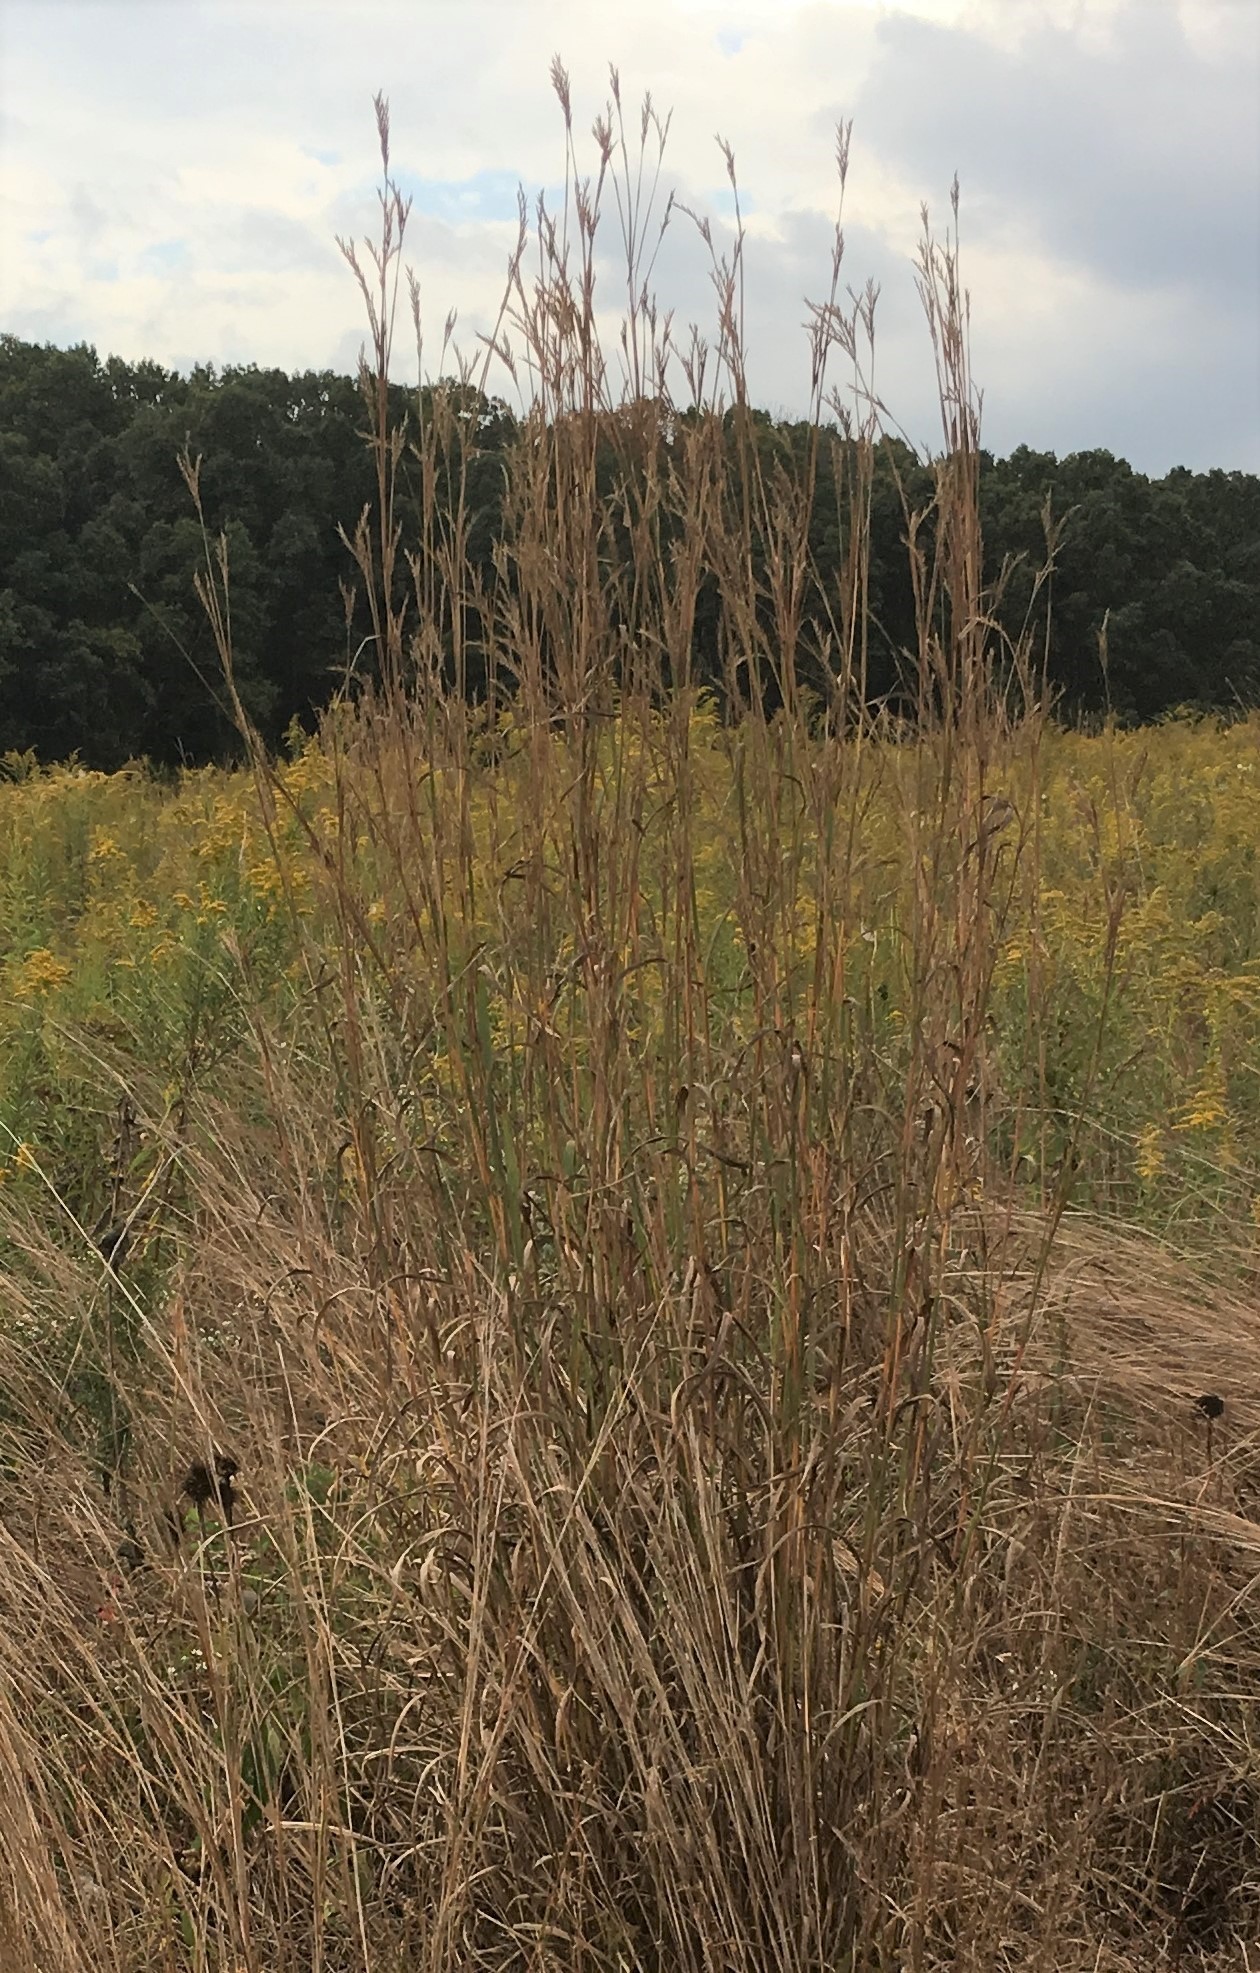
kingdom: Plantae
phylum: Tracheophyta
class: Liliopsida
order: Poales
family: Poaceae
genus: Andropogon
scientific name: Andropogon gerardi
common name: Big bluestem
